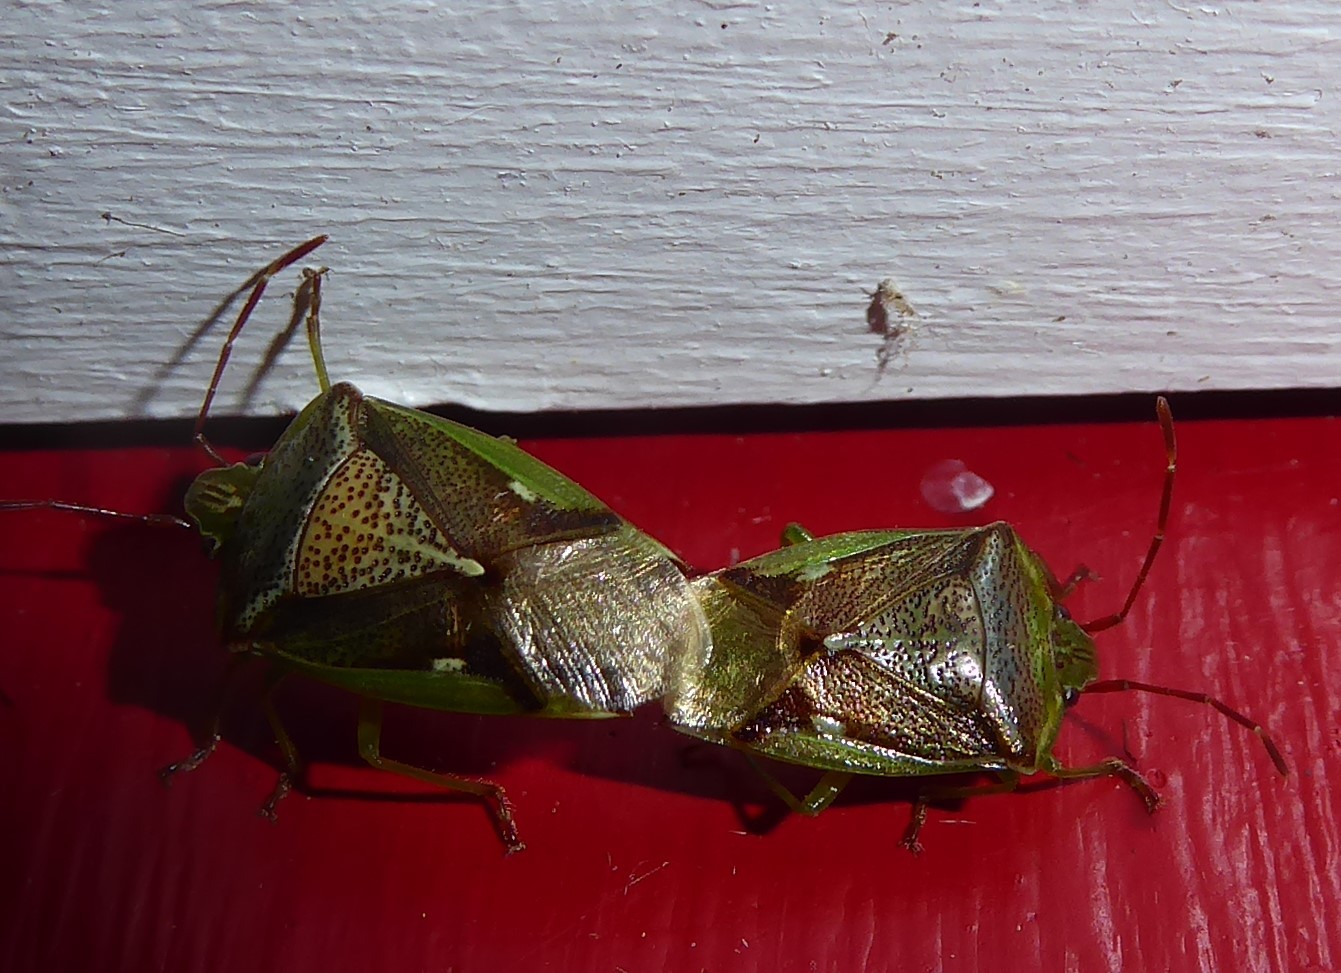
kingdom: Animalia
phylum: Arthropoda
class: Insecta
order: Hemiptera
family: Acanthosomatidae
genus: Oncacontias
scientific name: Oncacontias vittatus
